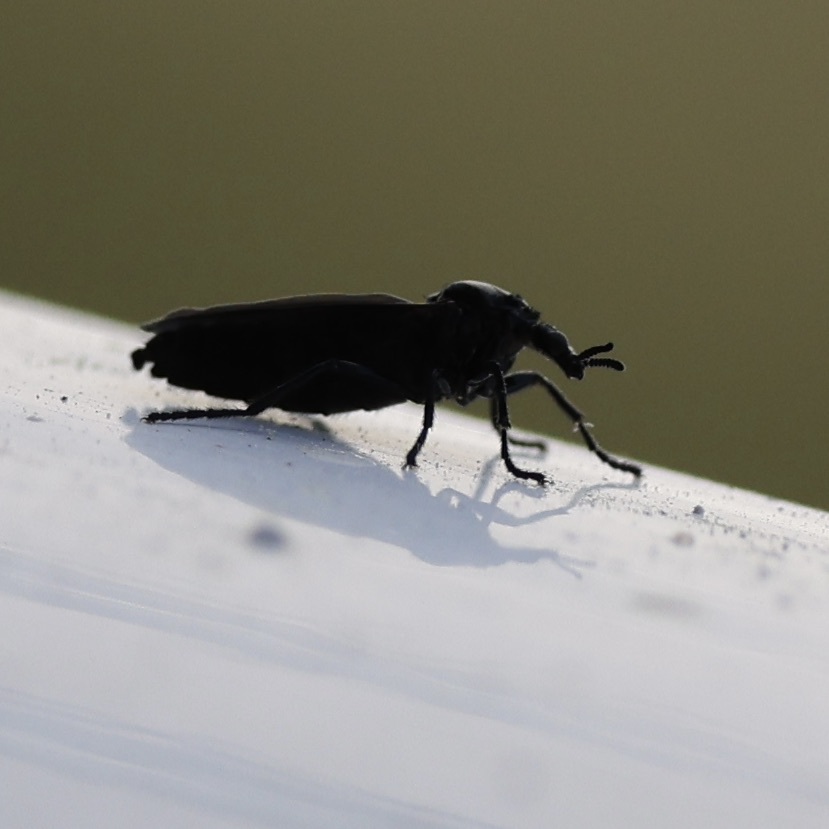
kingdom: Animalia
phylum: Arthropoda
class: Insecta
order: Diptera
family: Bibionidae
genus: Dilophus
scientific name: Dilophus orbatus
